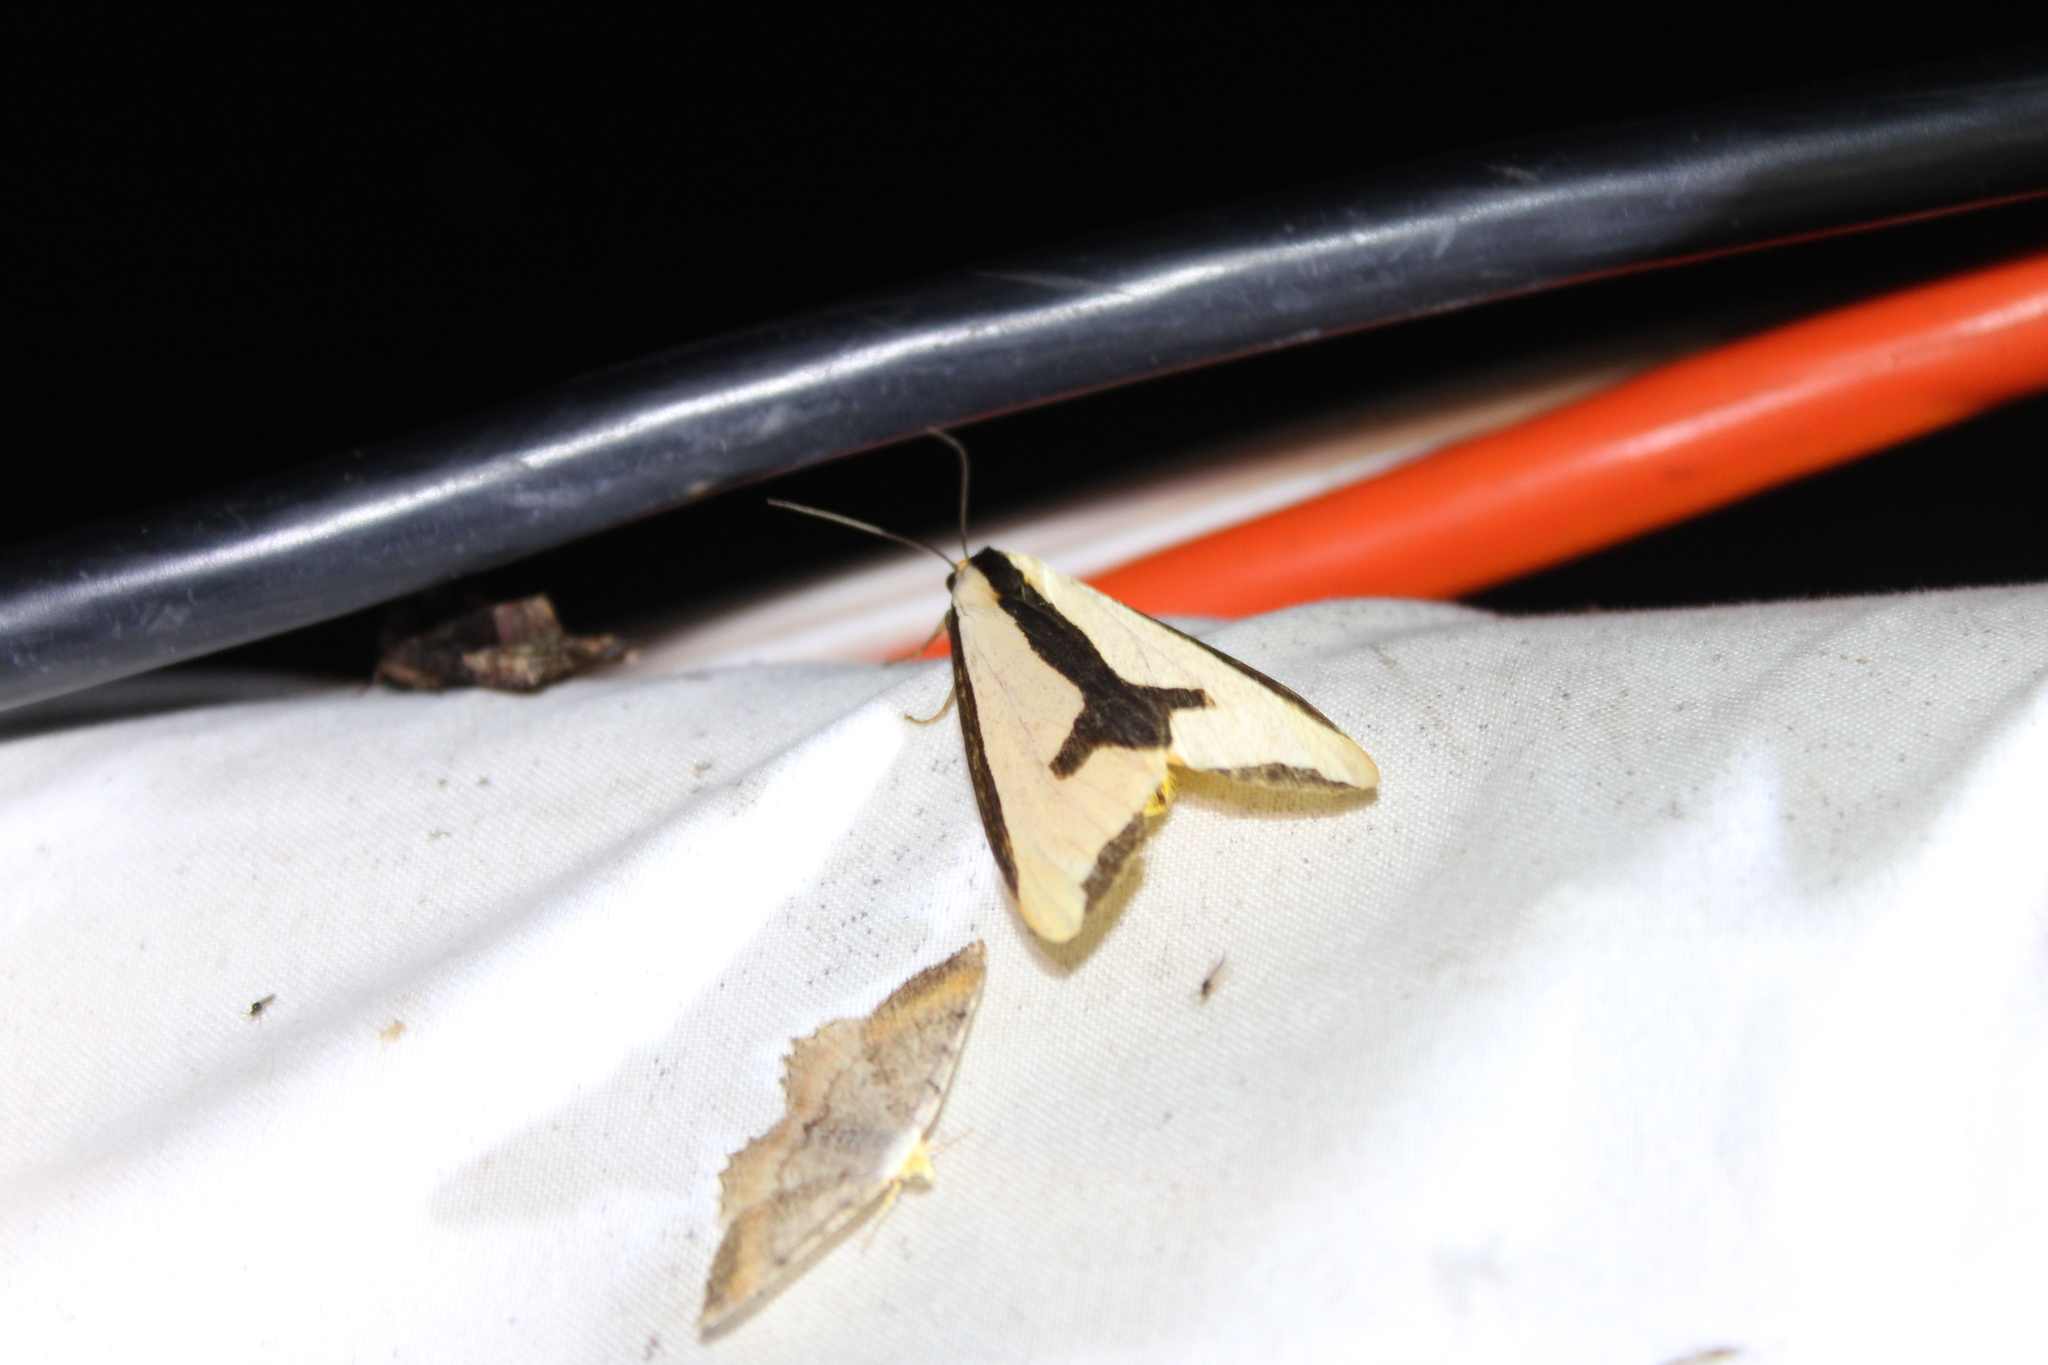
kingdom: Animalia
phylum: Arthropoda
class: Insecta
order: Lepidoptera
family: Erebidae
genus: Haploa
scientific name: Haploa clymene
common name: Clymene moth
